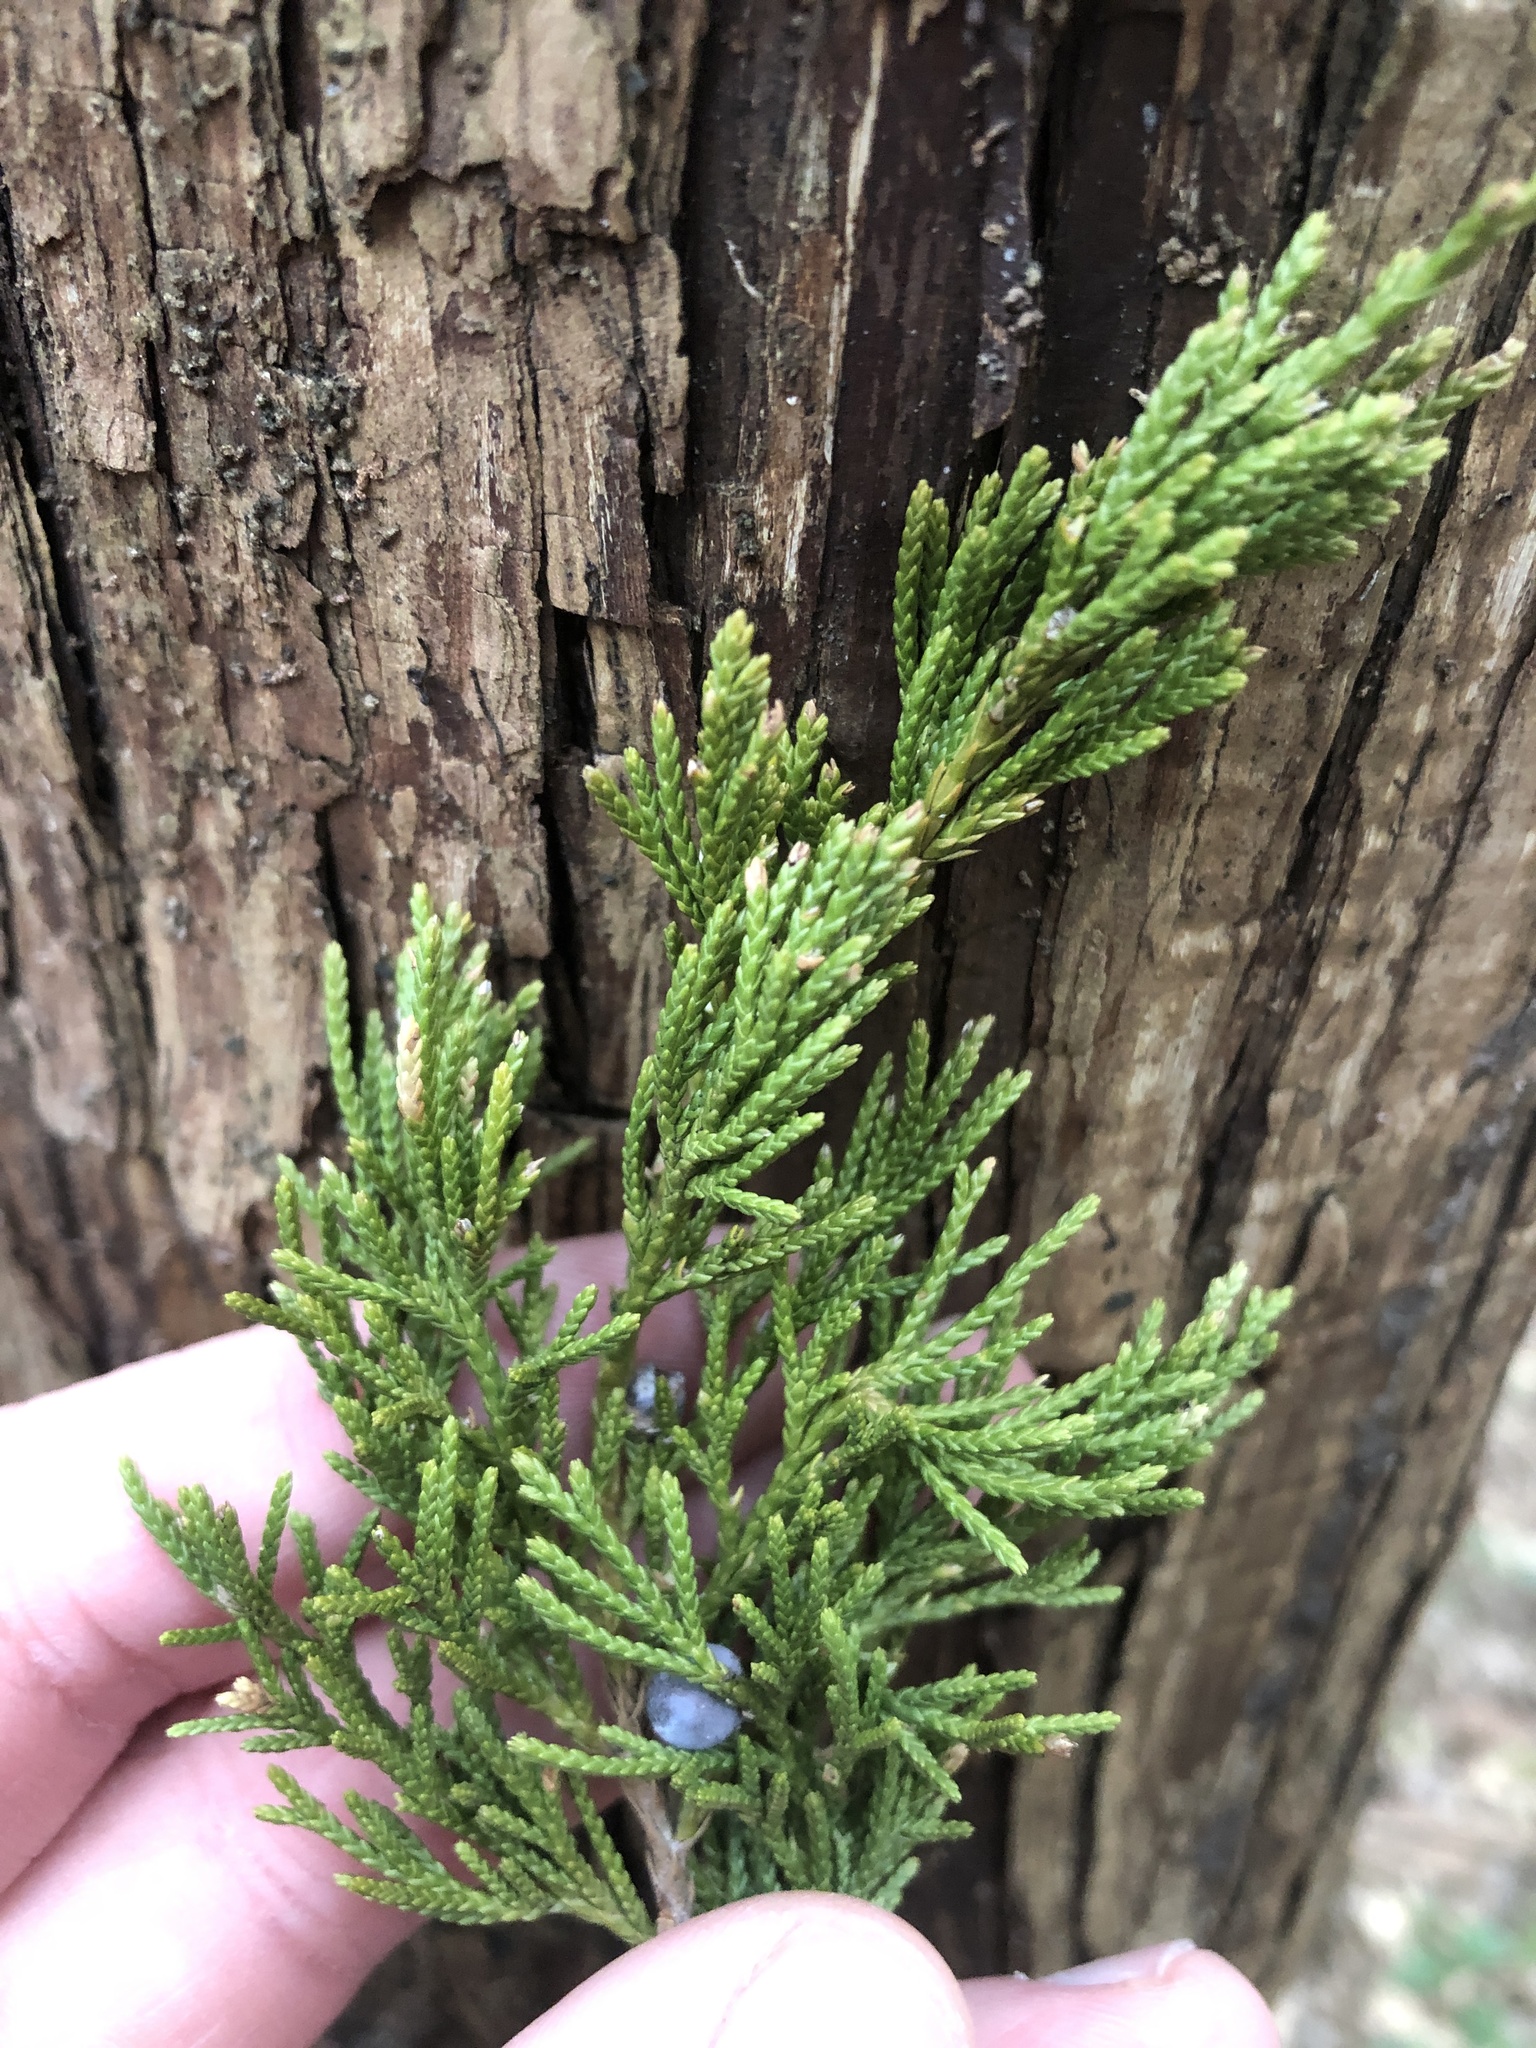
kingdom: Plantae
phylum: Tracheophyta
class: Pinopsida
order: Pinales
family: Cupressaceae
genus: Juniperus
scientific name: Juniperus virginiana
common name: Red juniper
